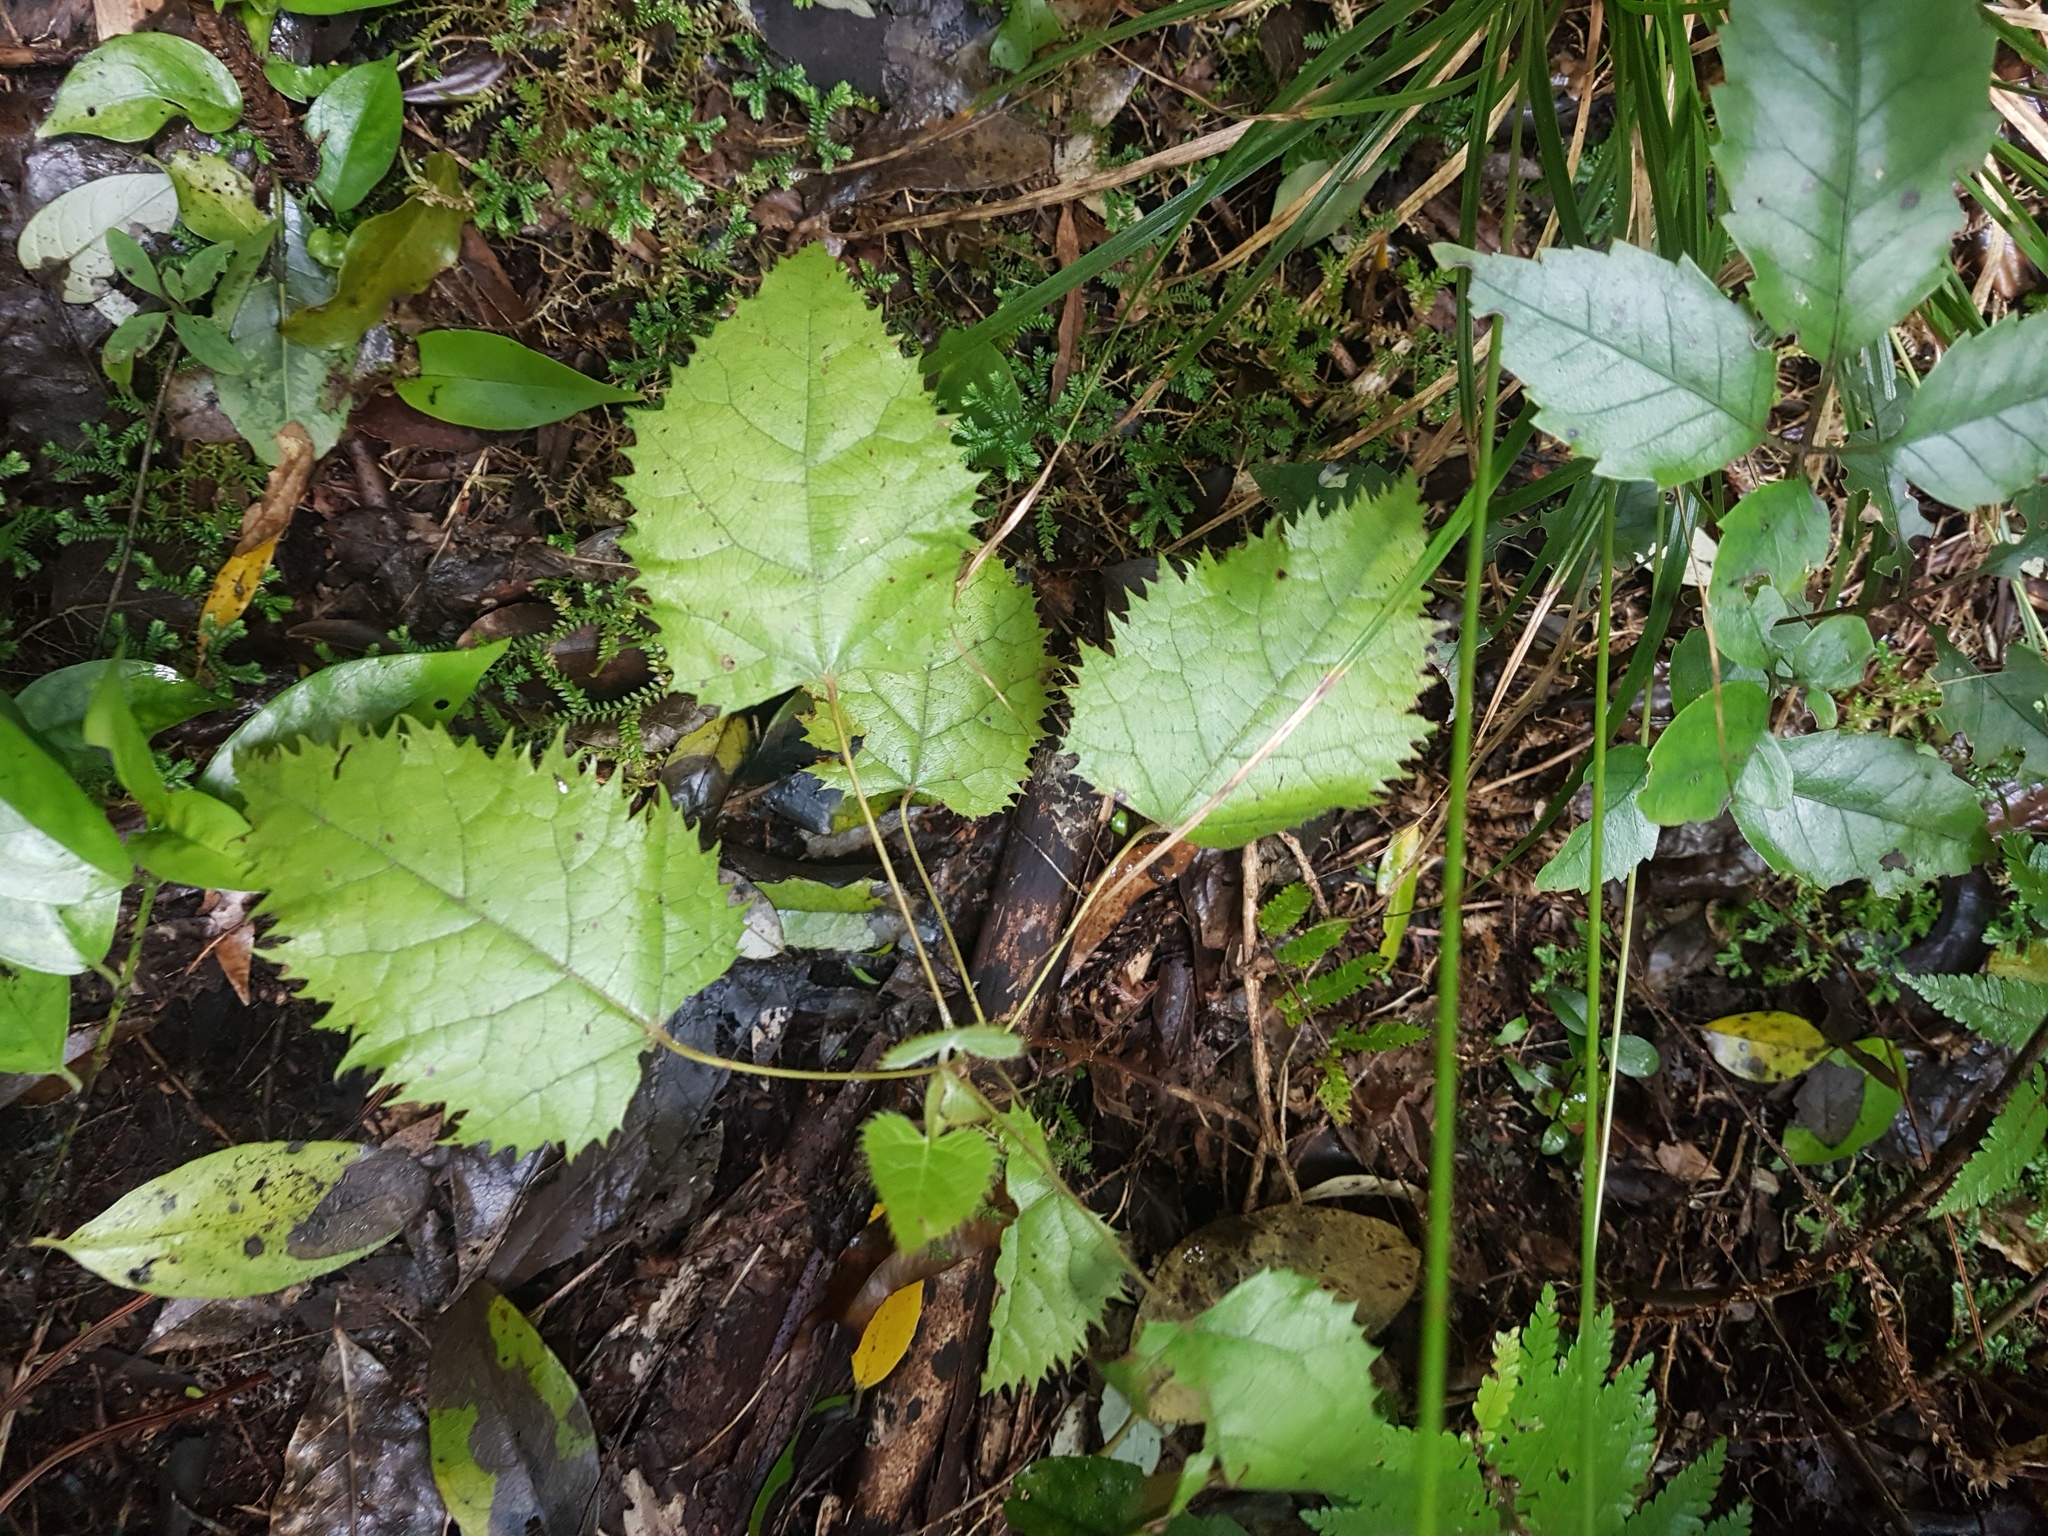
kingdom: Plantae
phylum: Tracheophyta
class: Magnoliopsida
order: Oxalidales
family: Elaeocarpaceae
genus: Aristotelia
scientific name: Aristotelia serrata
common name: New zealand wineberry
